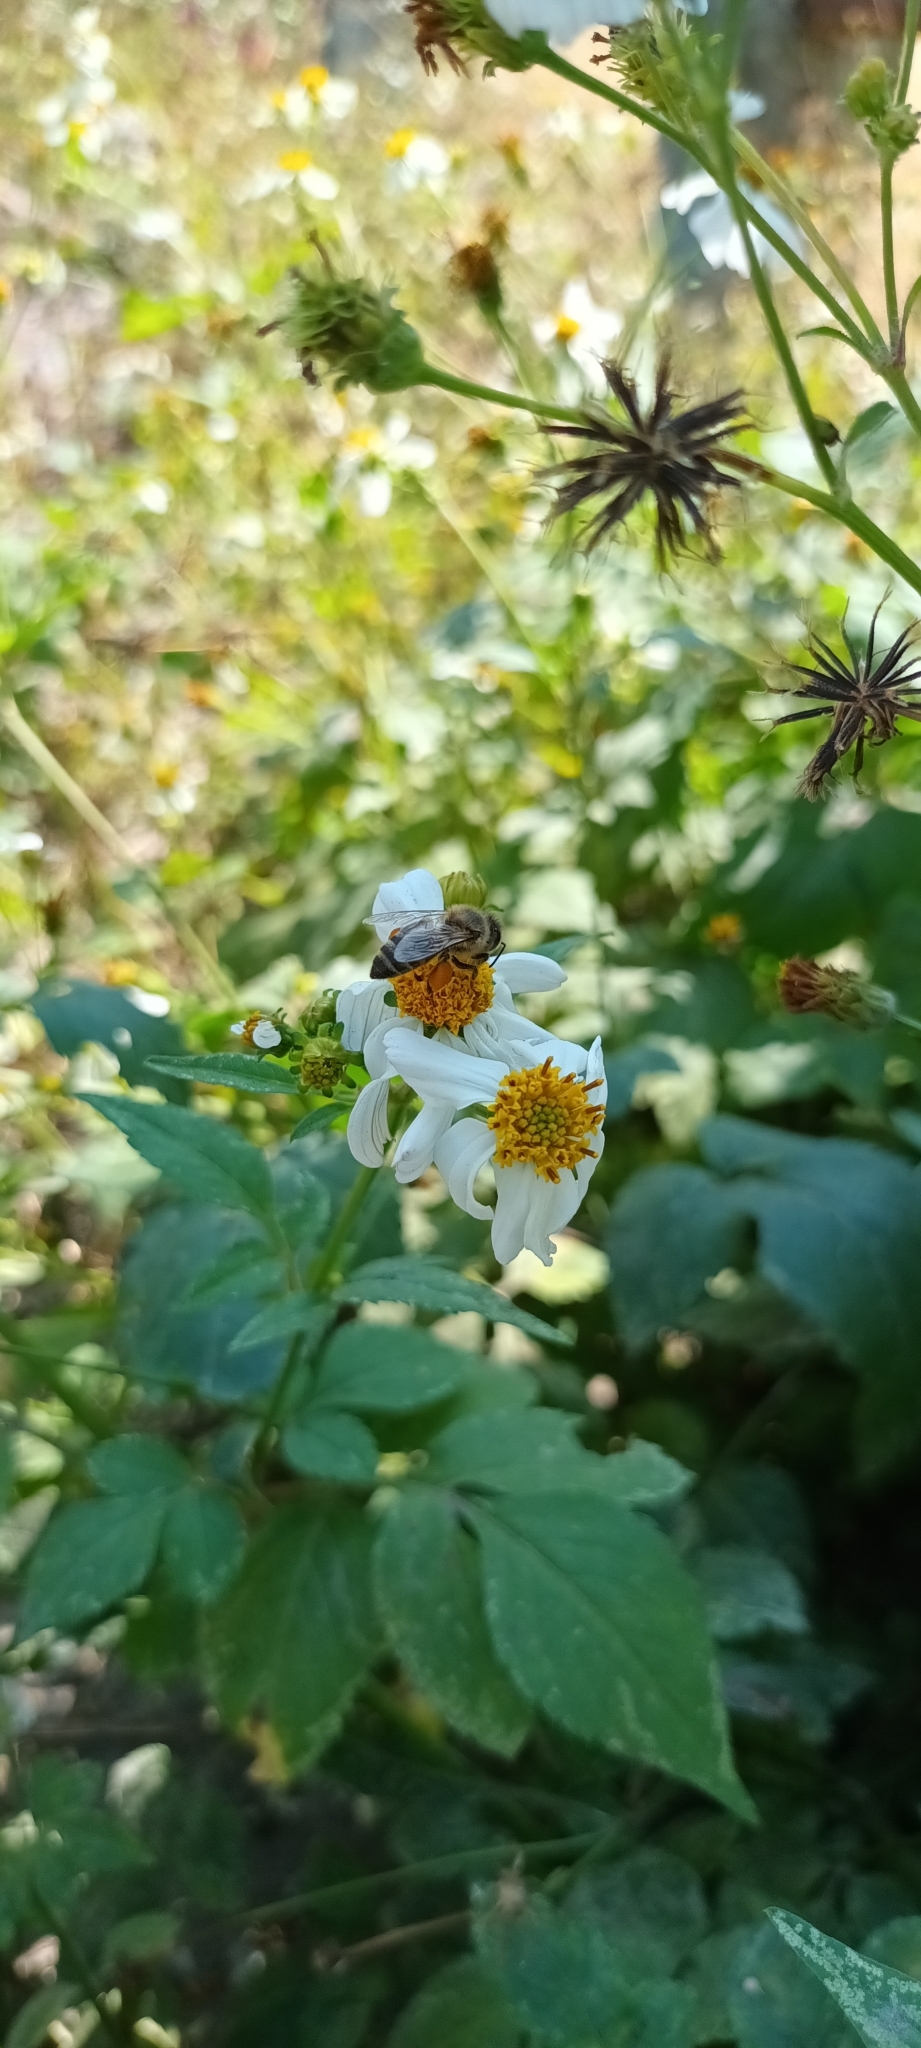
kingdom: Animalia
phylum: Arthropoda
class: Insecta
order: Hymenoptera
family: Apidae
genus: Apis
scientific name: Apis mellifera
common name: Honey bee
